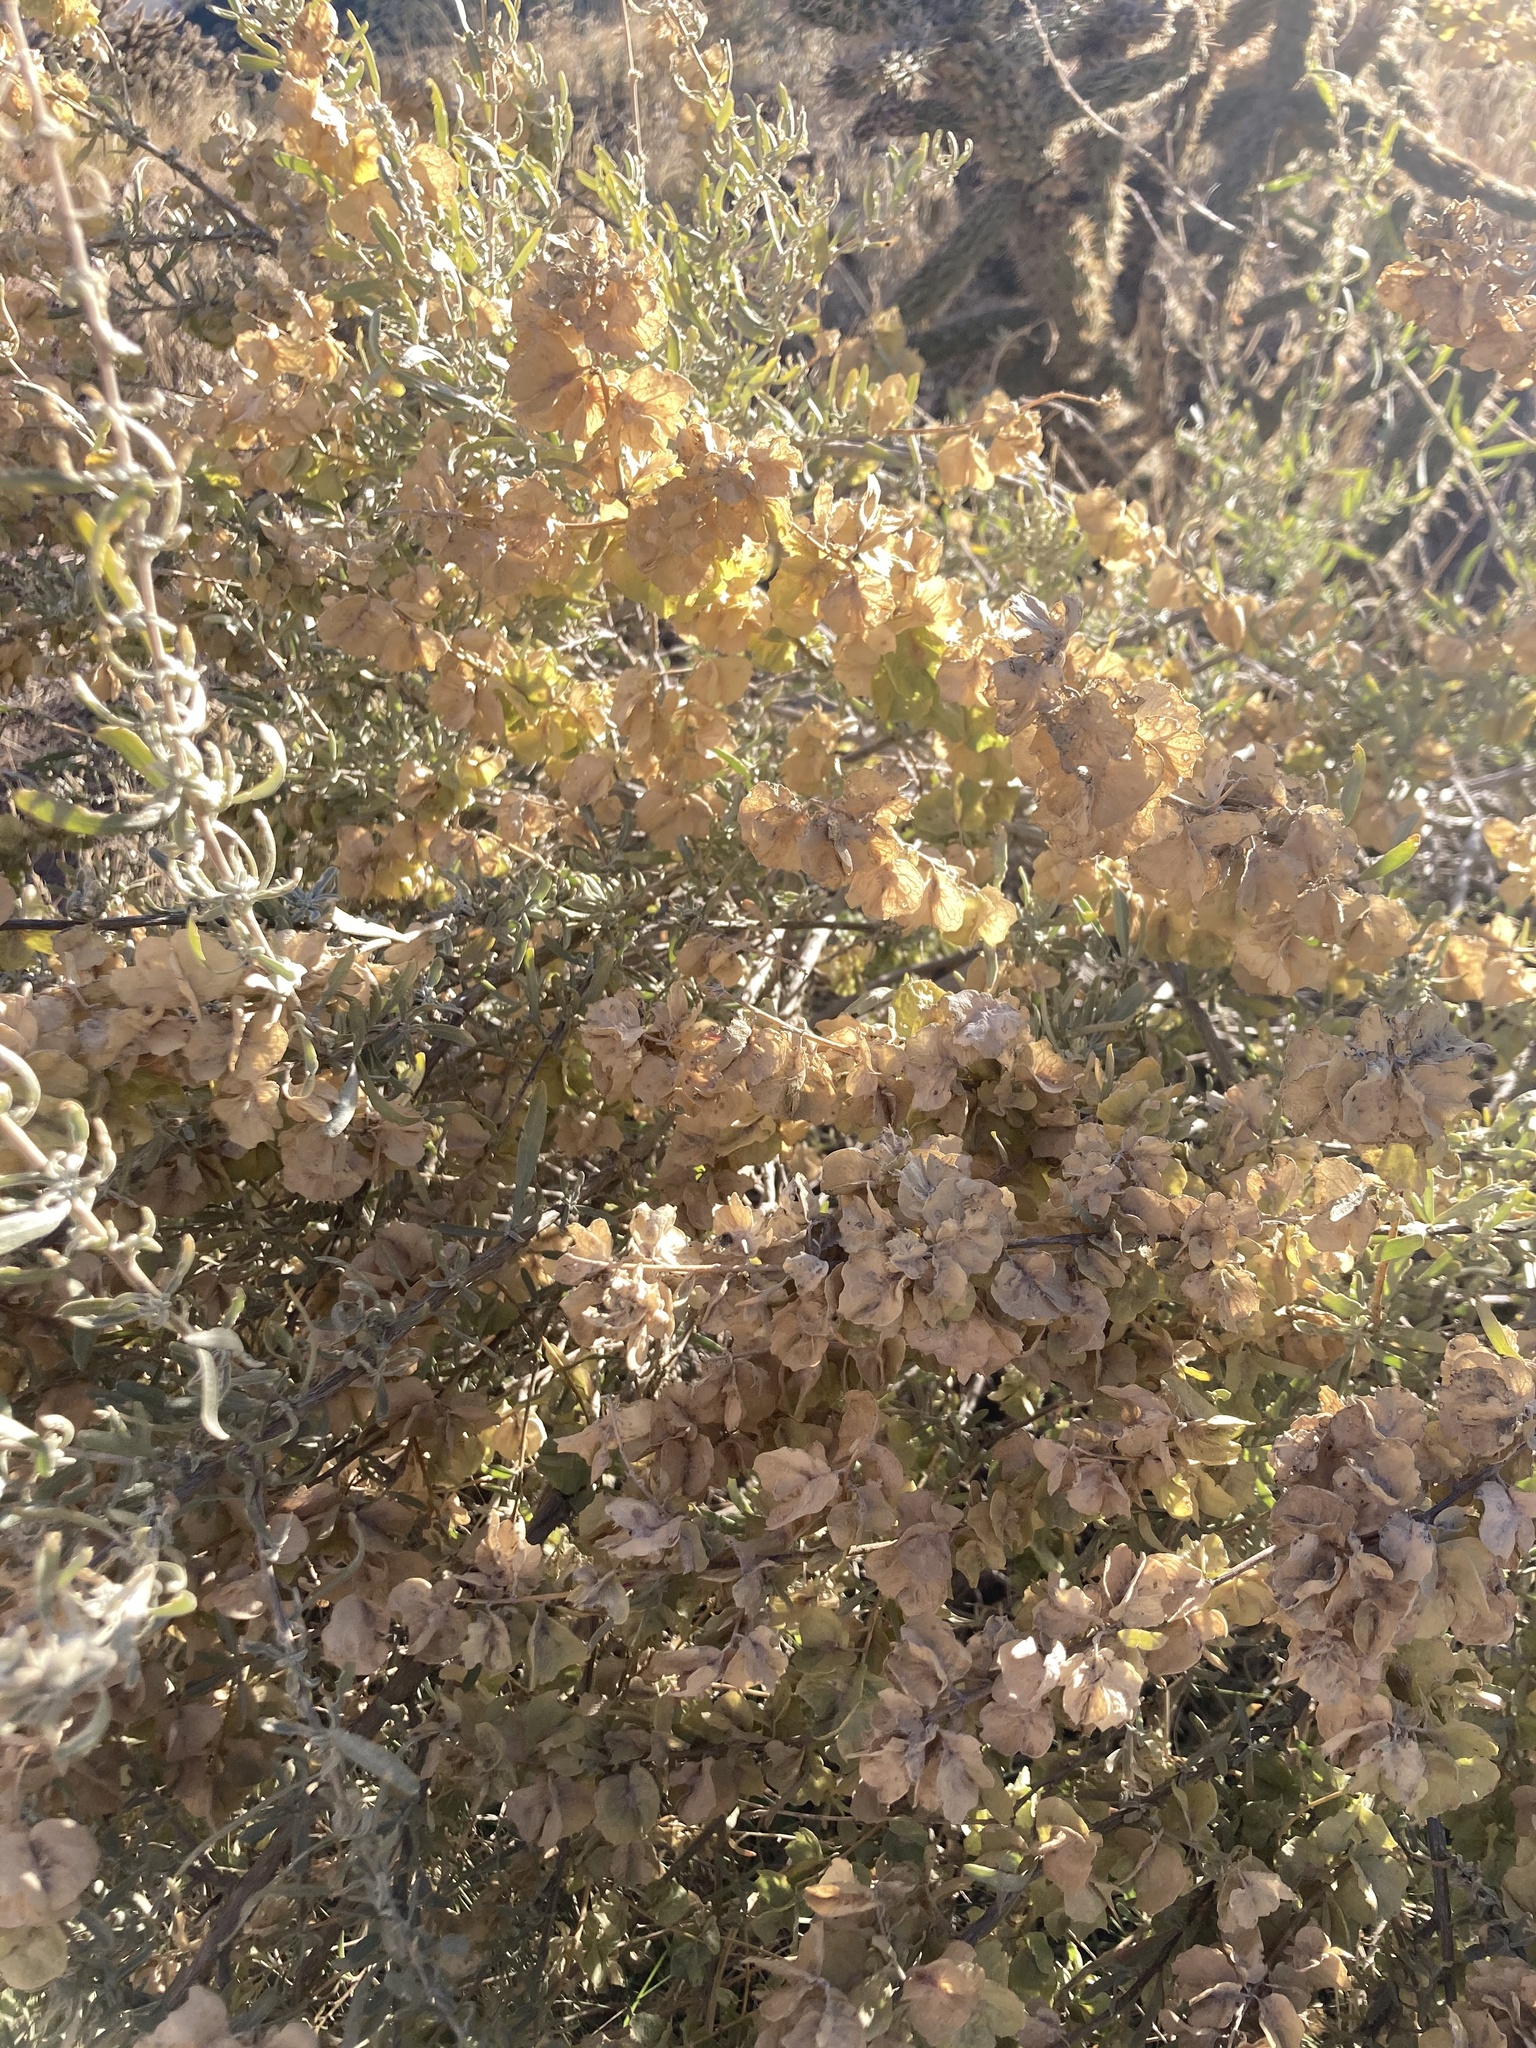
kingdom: Plantae
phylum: Tracheophyta
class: Magnoliopsida
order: Caryophyllales
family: Amaranthaceae
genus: Atriplex
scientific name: Atriplex canescens
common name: Four-wing saltbush
